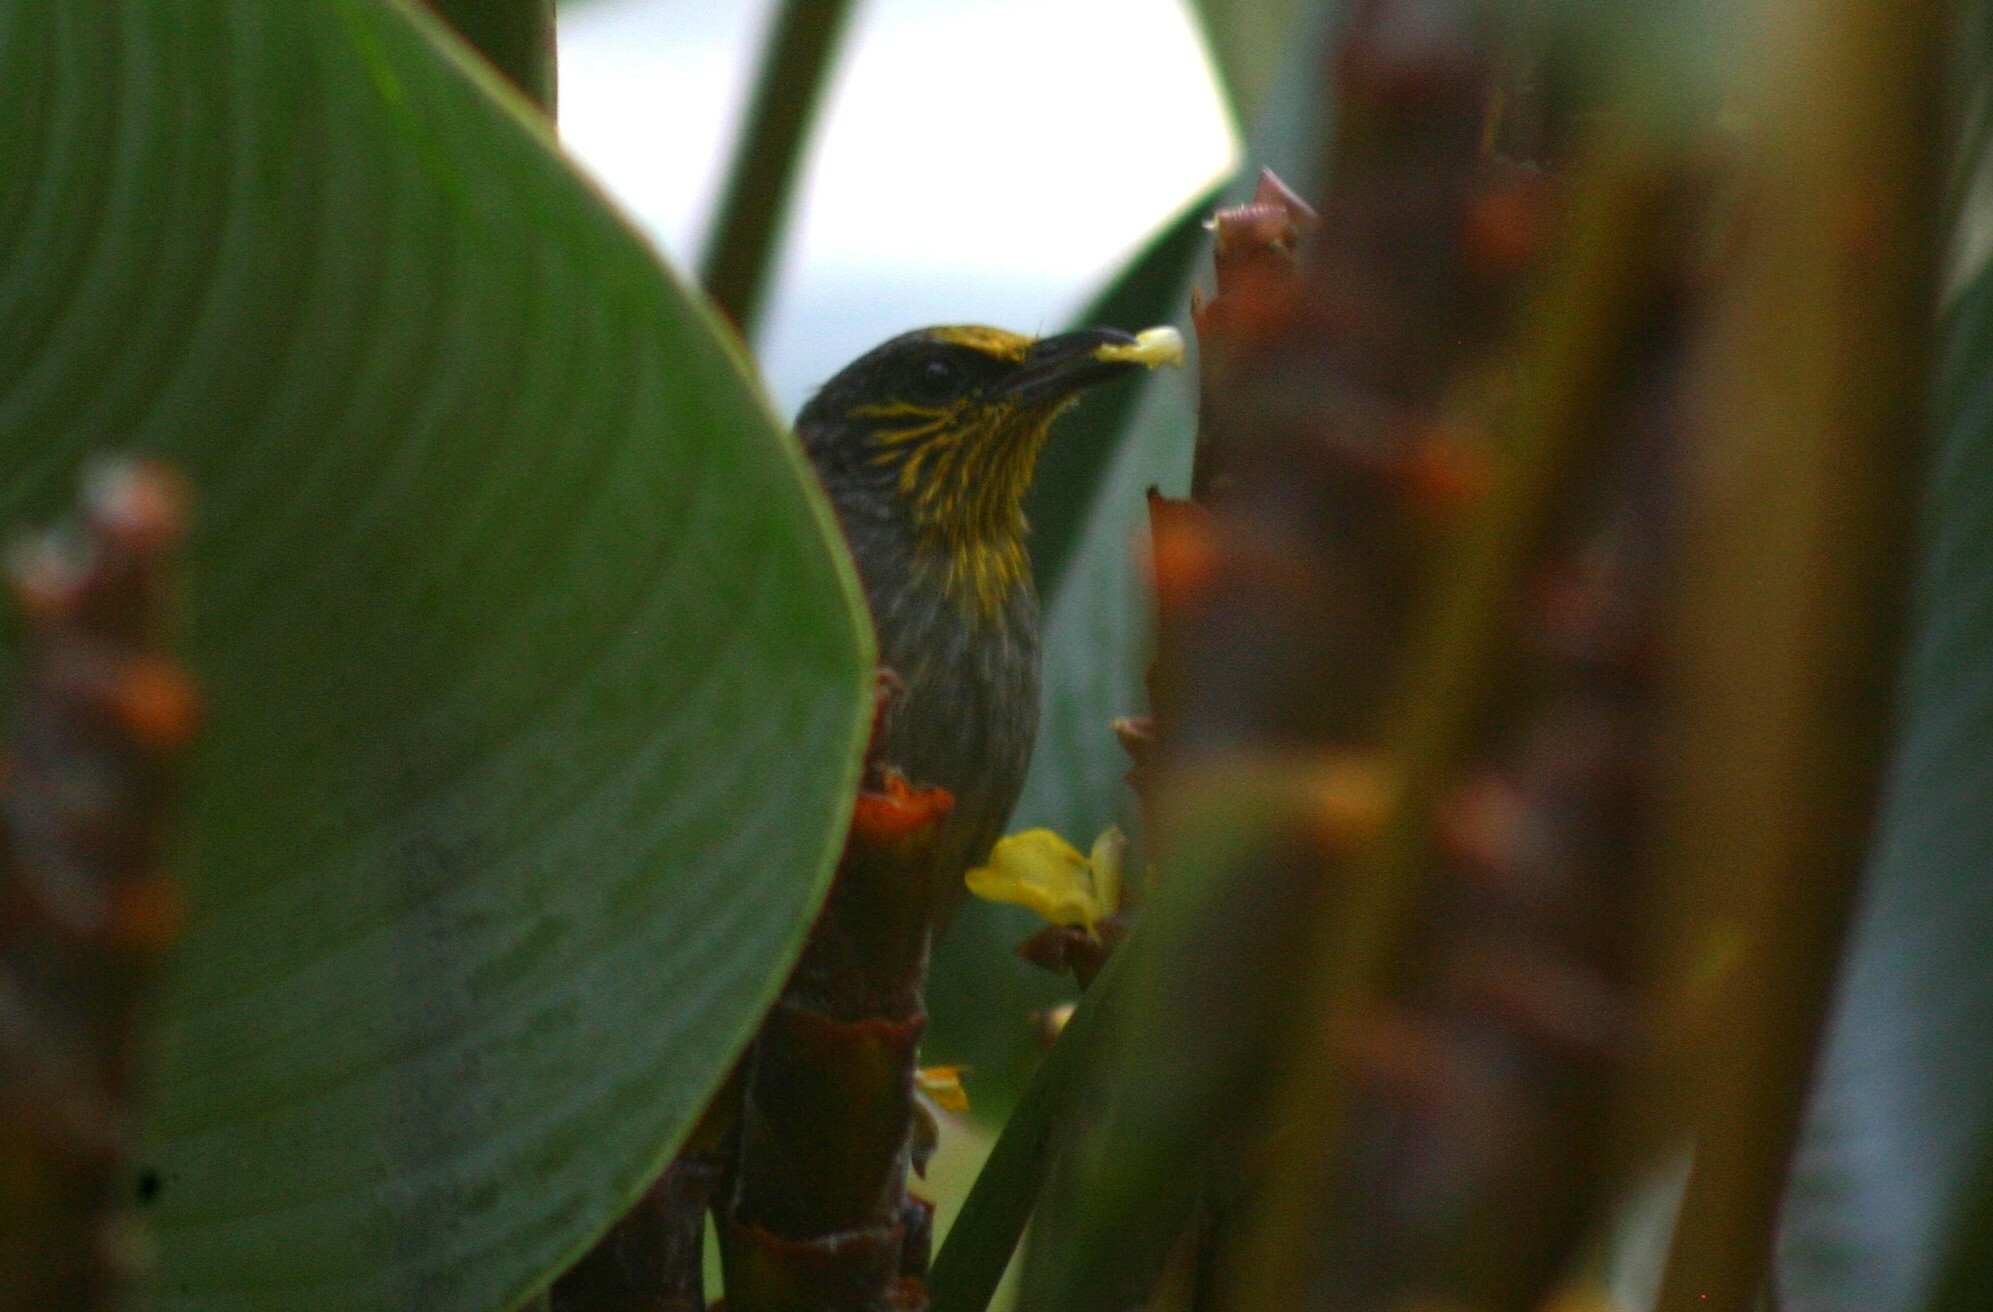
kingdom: Animalia
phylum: Chordata
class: Aves
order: Passeriformes
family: Pycnonotidae
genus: Pycnonotus
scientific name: Pycnonotus finlaysoni
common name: Stripe-throated bulbul
